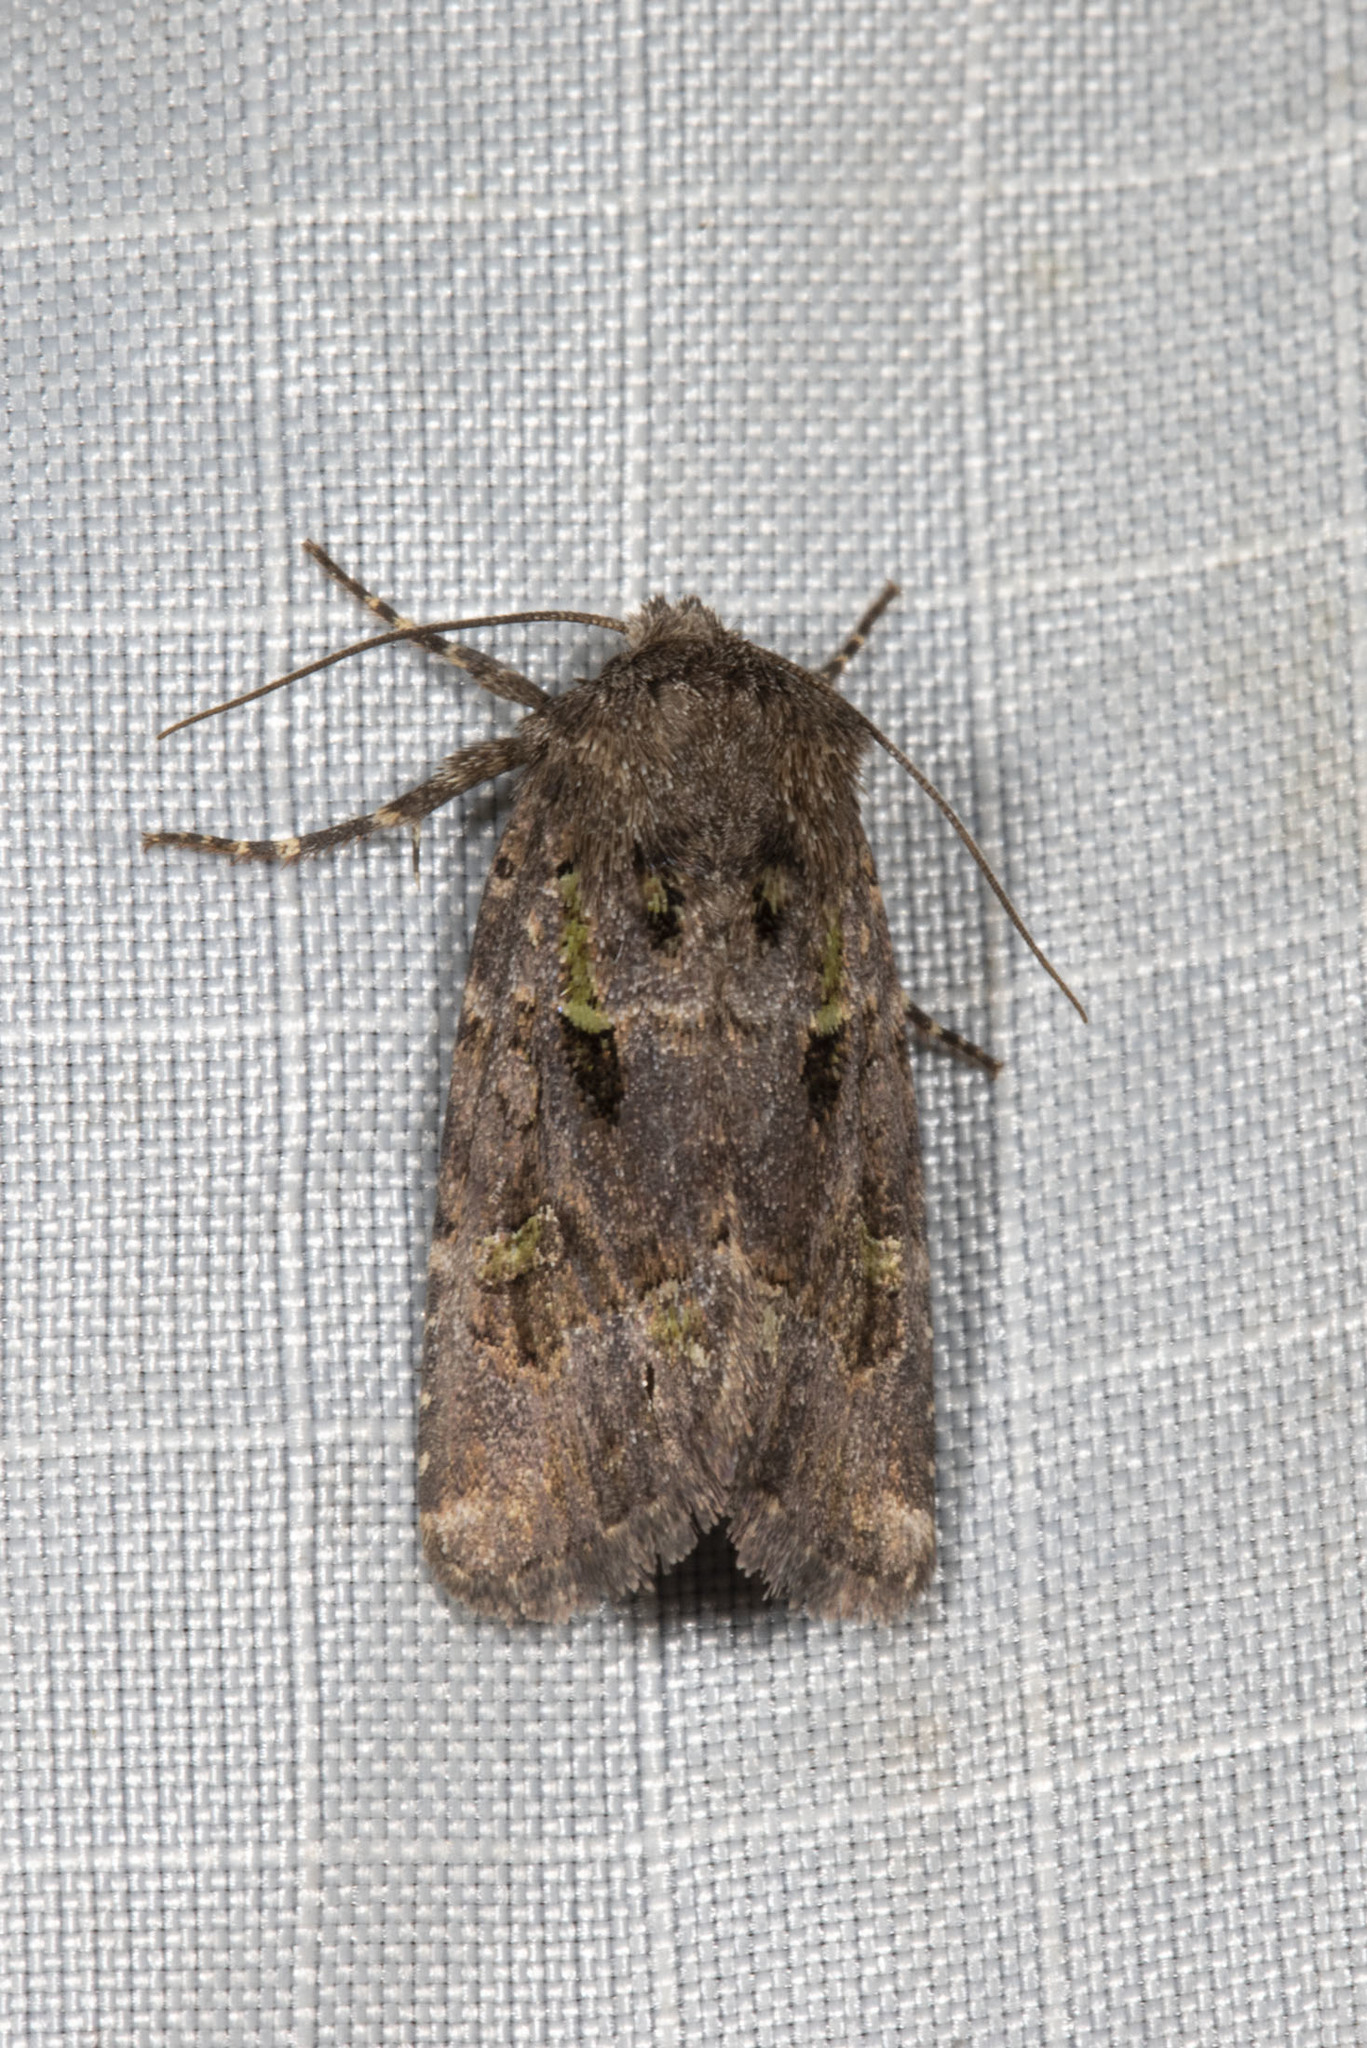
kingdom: Animalia
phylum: Arthropoda
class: Insecta
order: Lepidoptera
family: Noctuidae
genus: Lacinipolia
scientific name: Lacinipolia renigera
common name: Kidney-spotted minor
